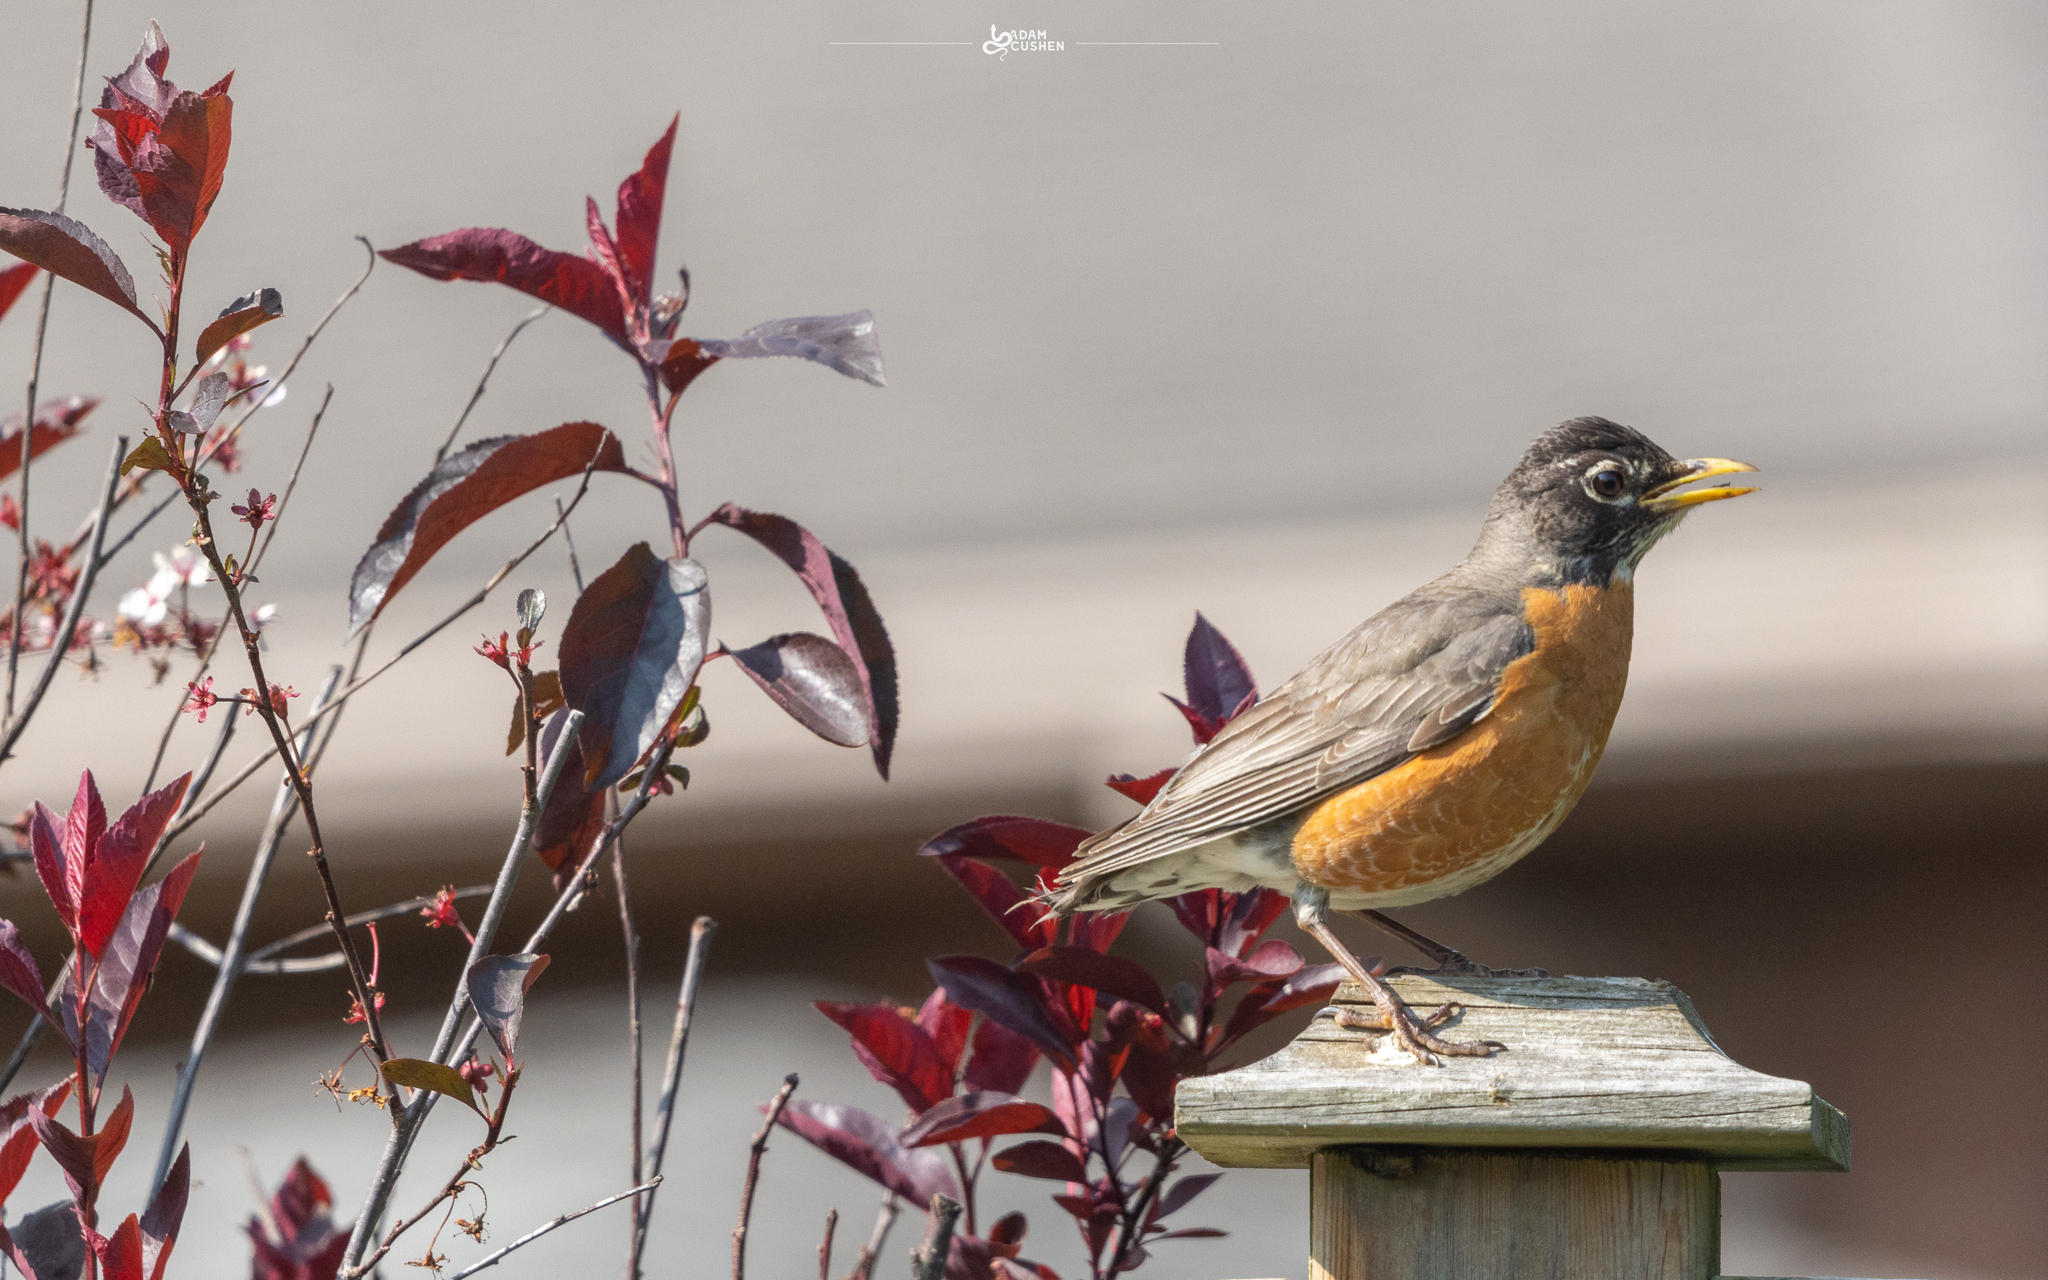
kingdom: Animalia
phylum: Chordata
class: Aves
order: Passeriformes
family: Turdidae
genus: Turdus
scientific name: Turdus migratorius
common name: American robin
